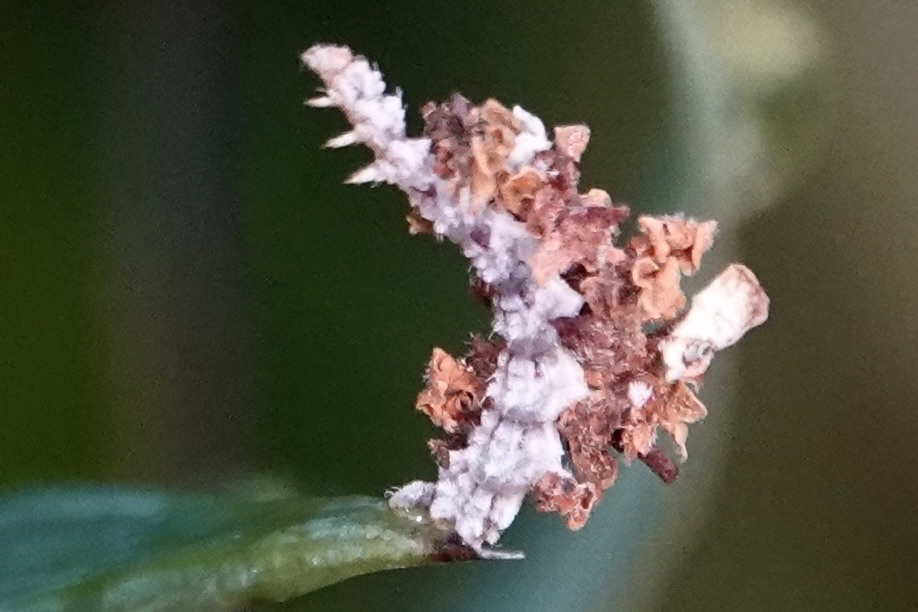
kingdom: Animalia
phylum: Arthropoda
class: Insecta
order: Lepidoptera
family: Geometridae
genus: Synchlora
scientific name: Synchlora aerata
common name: Wavy-lined emerald
